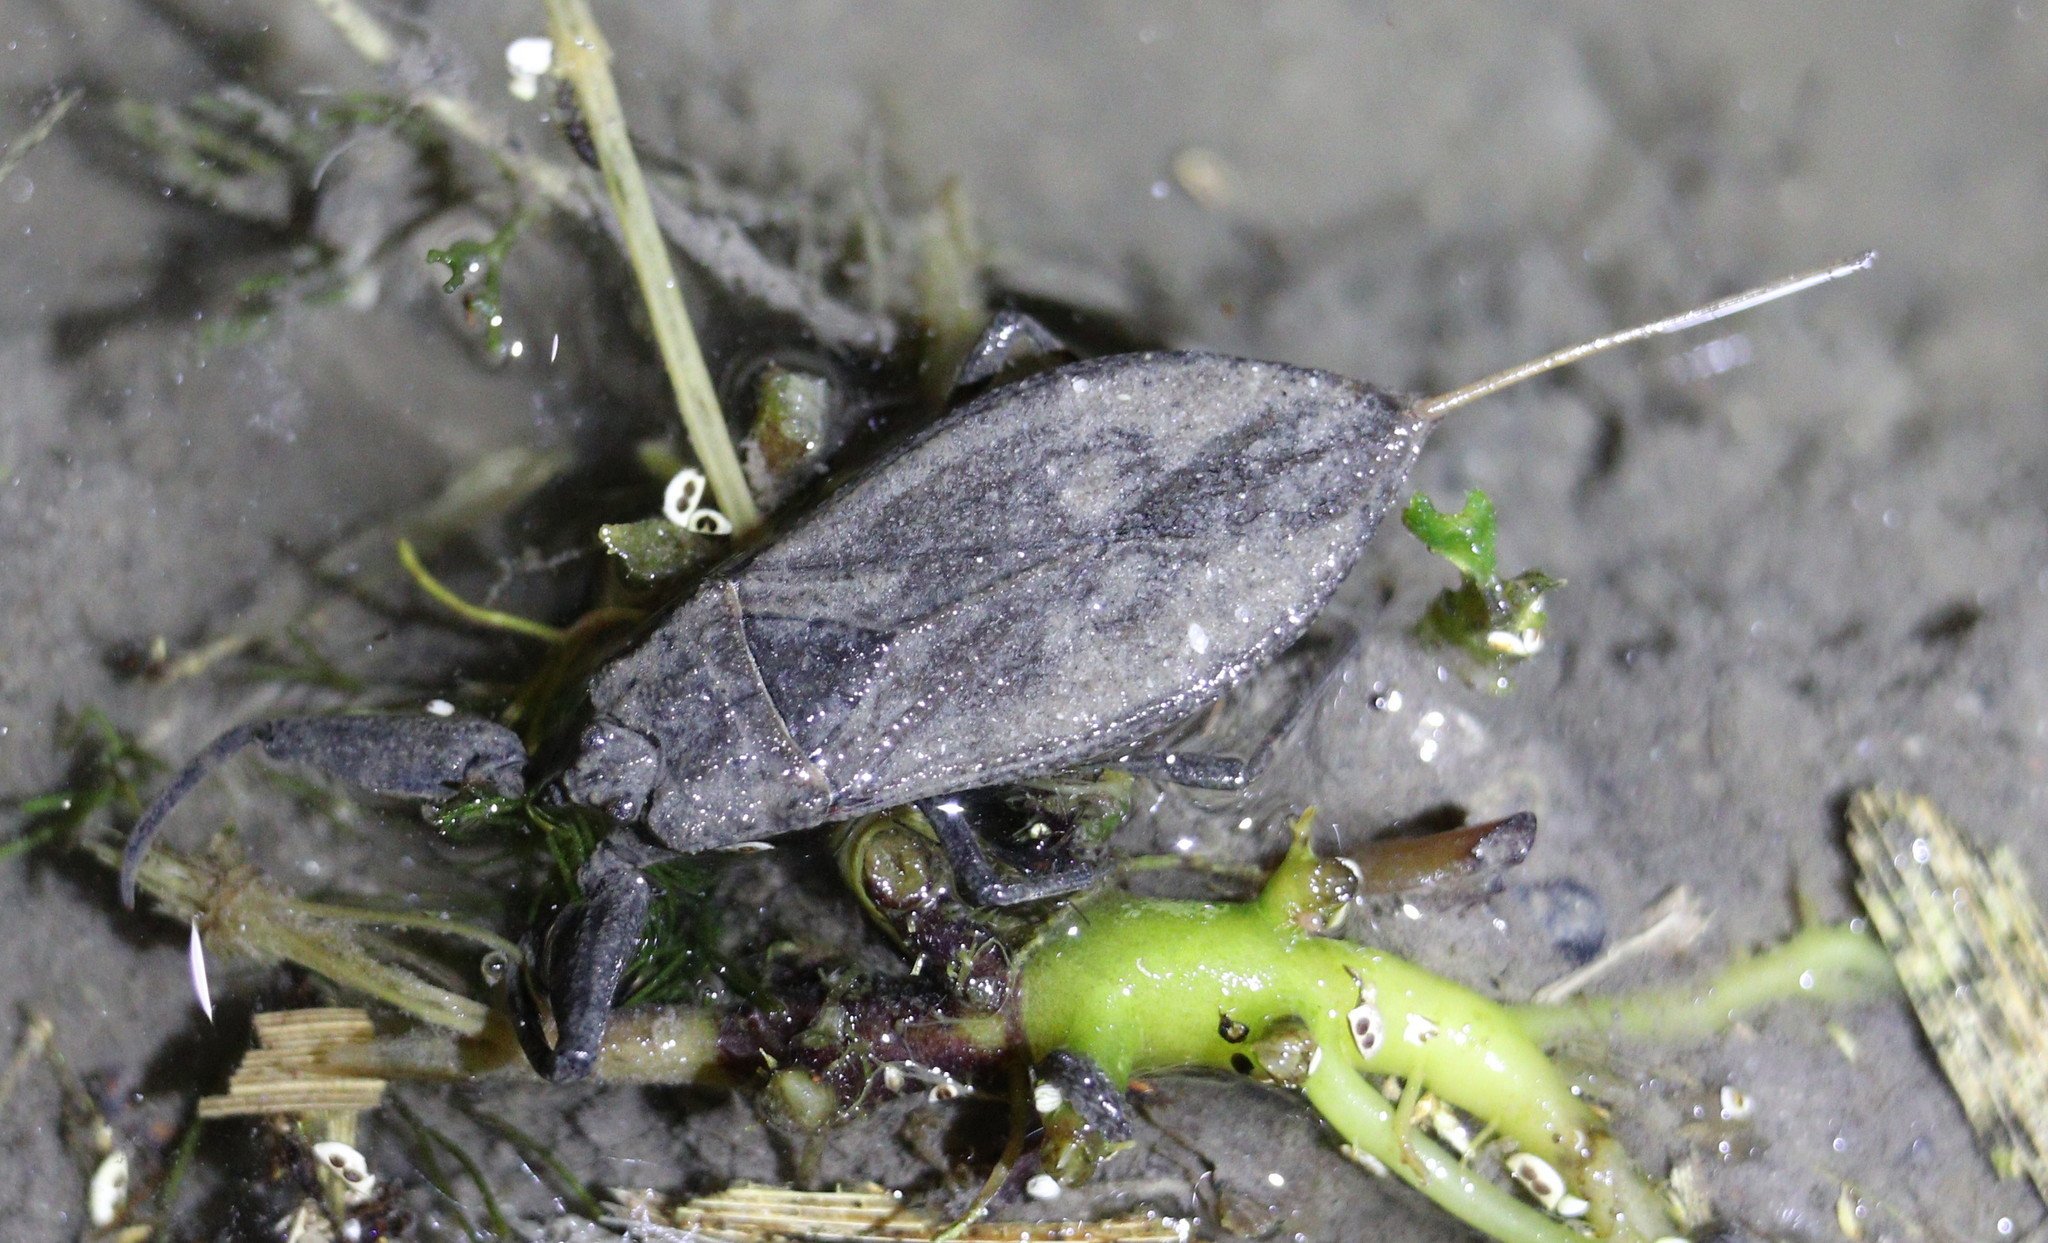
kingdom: Animalia
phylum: Arthropoda
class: Insecta
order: Hemiptera
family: Nepidae
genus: Nepa
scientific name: Nepa cinerea
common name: Water scorpion
